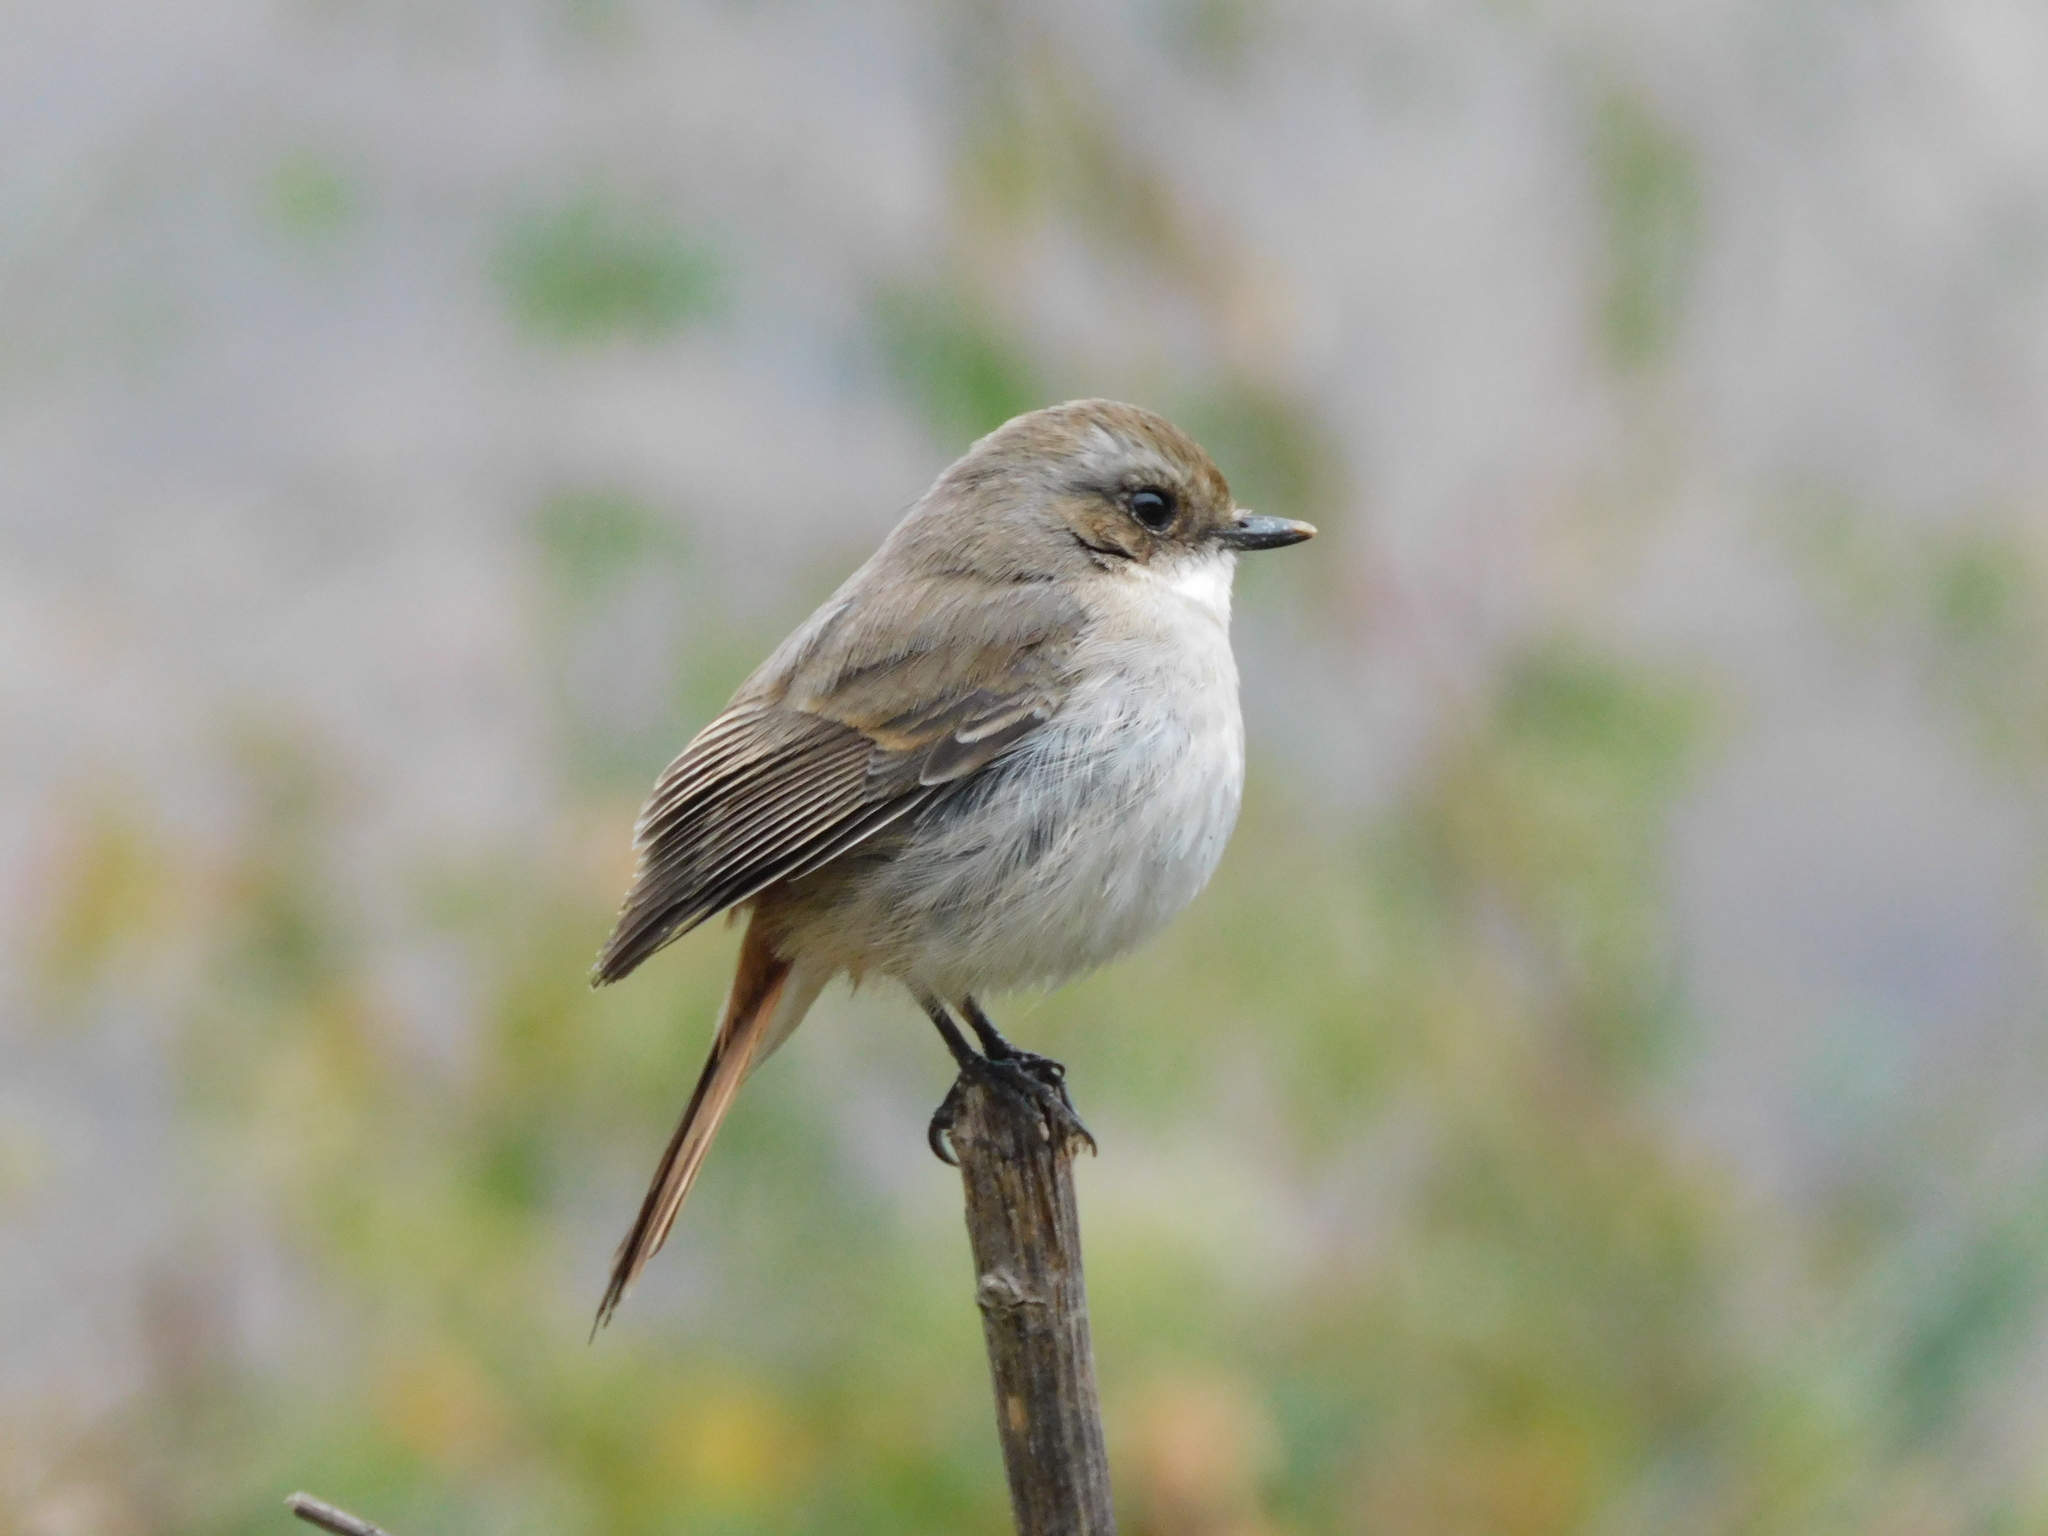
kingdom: Animalia
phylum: Chordata
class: Aves
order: Passeriformes
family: Muscicapidae
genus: Saxicola
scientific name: Saxicola ferreus
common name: Grey bush chat
